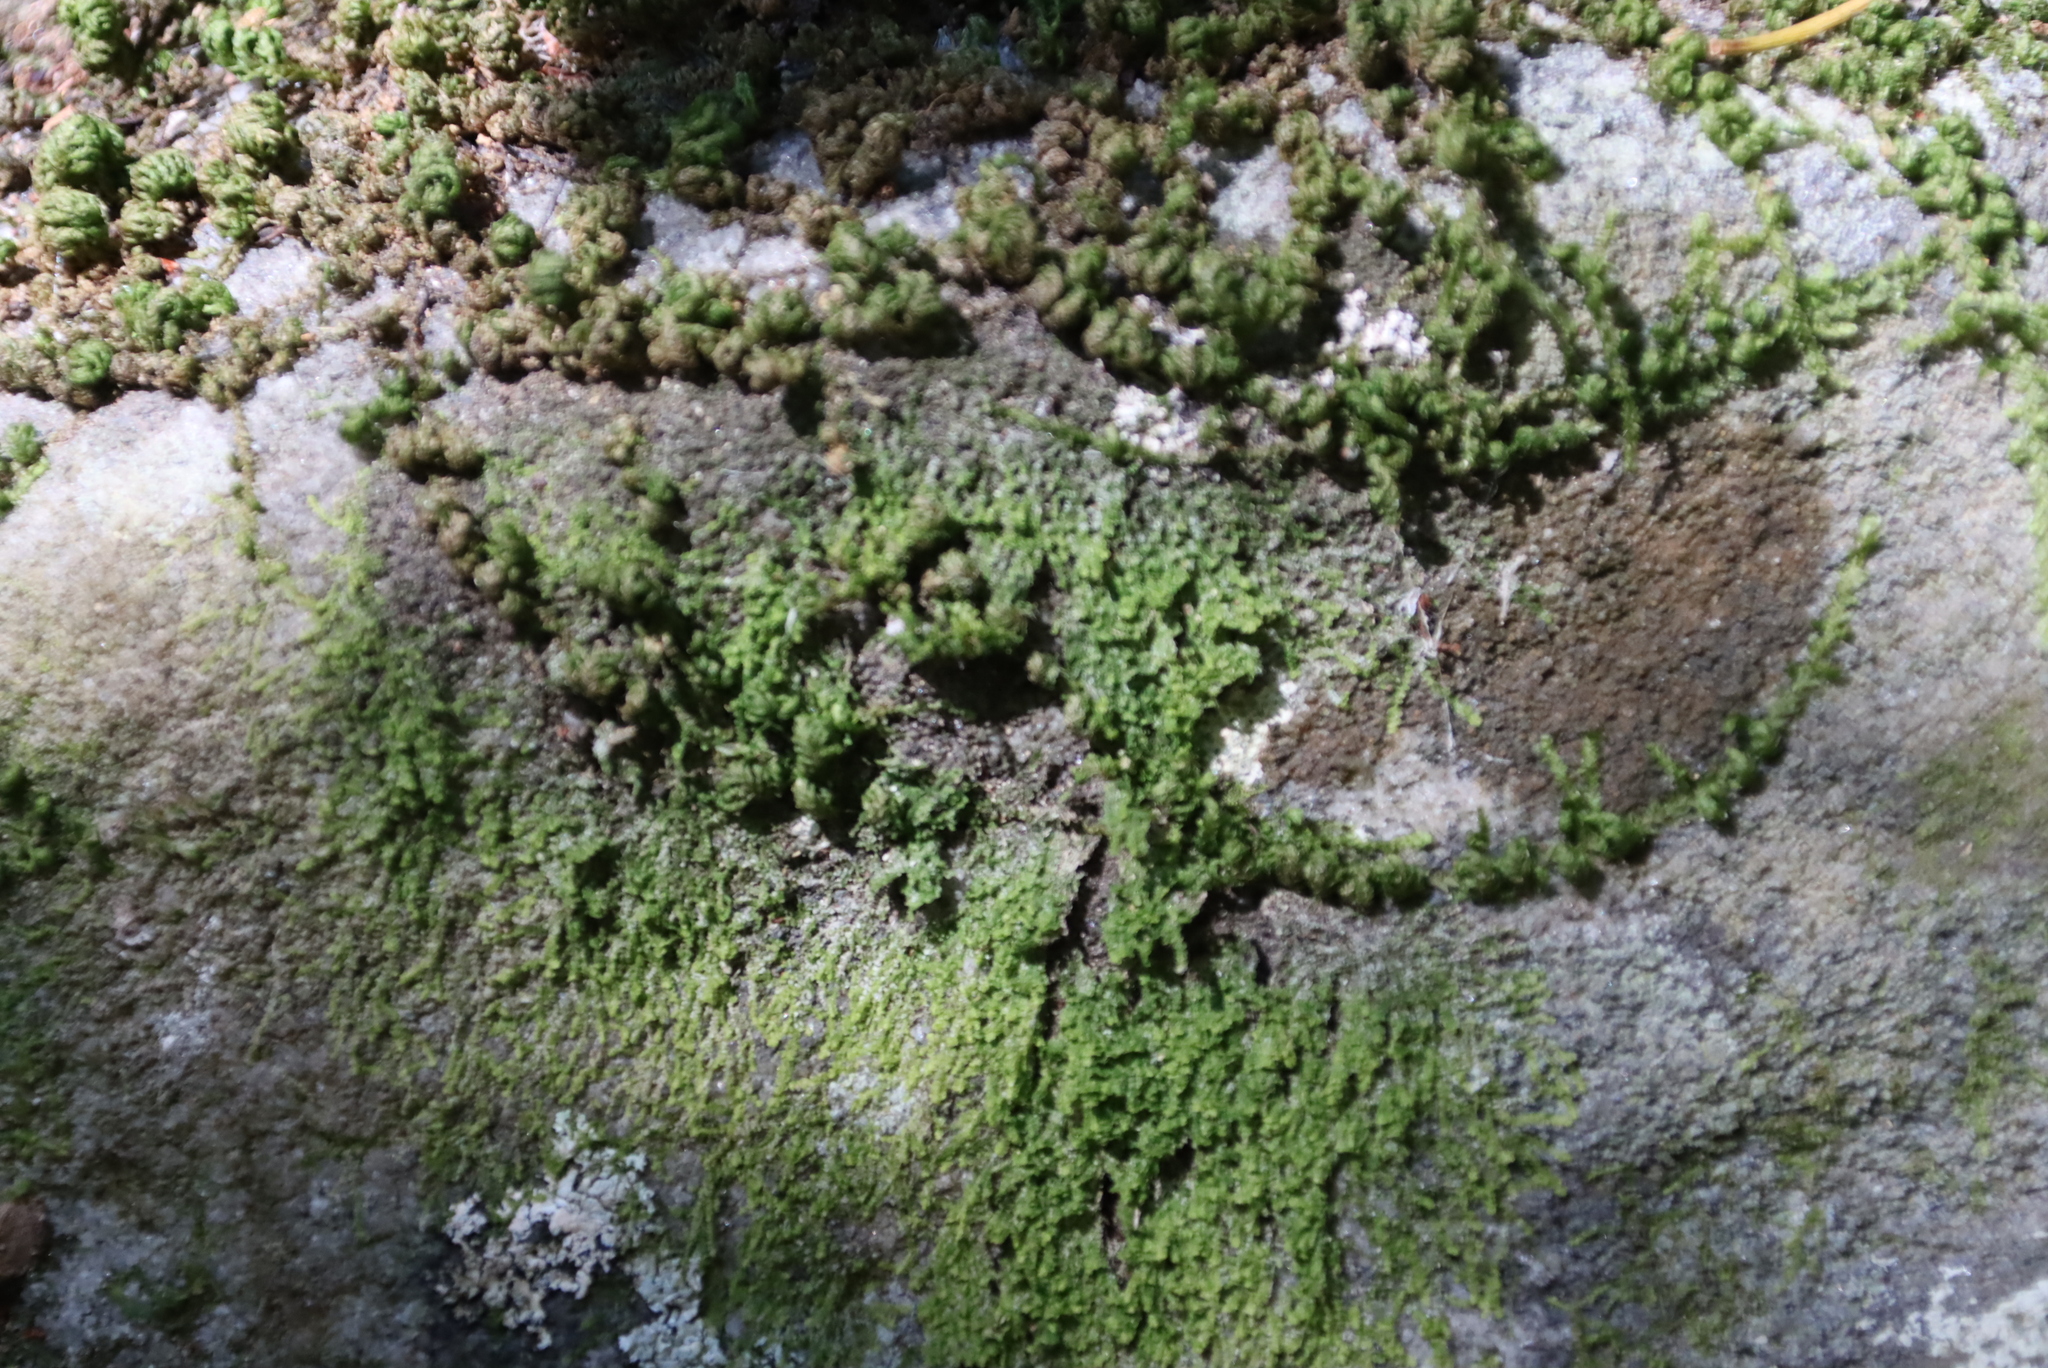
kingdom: Plantae
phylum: Bryophyta
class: Bryopsida
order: Hypnales
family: Neckeraceae
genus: Leptodon
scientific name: Leptodon smithii
